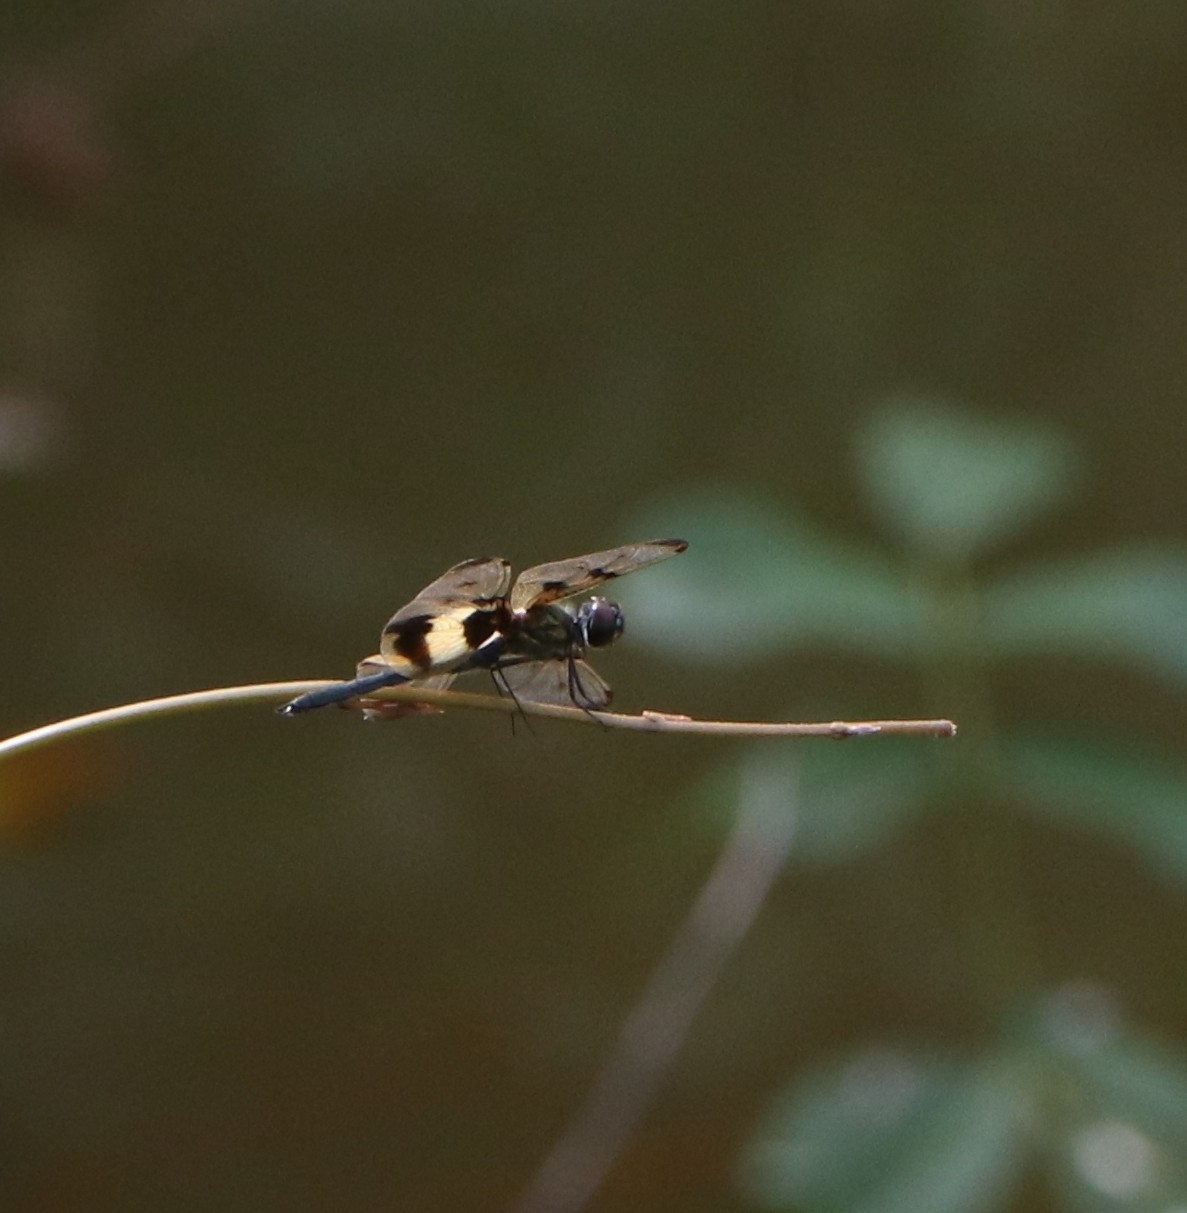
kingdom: Animalia
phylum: Arthropoda
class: Insecta
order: Odonata
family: Libellulidae
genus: Rhyothemis
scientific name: Rhyothemis variegata
